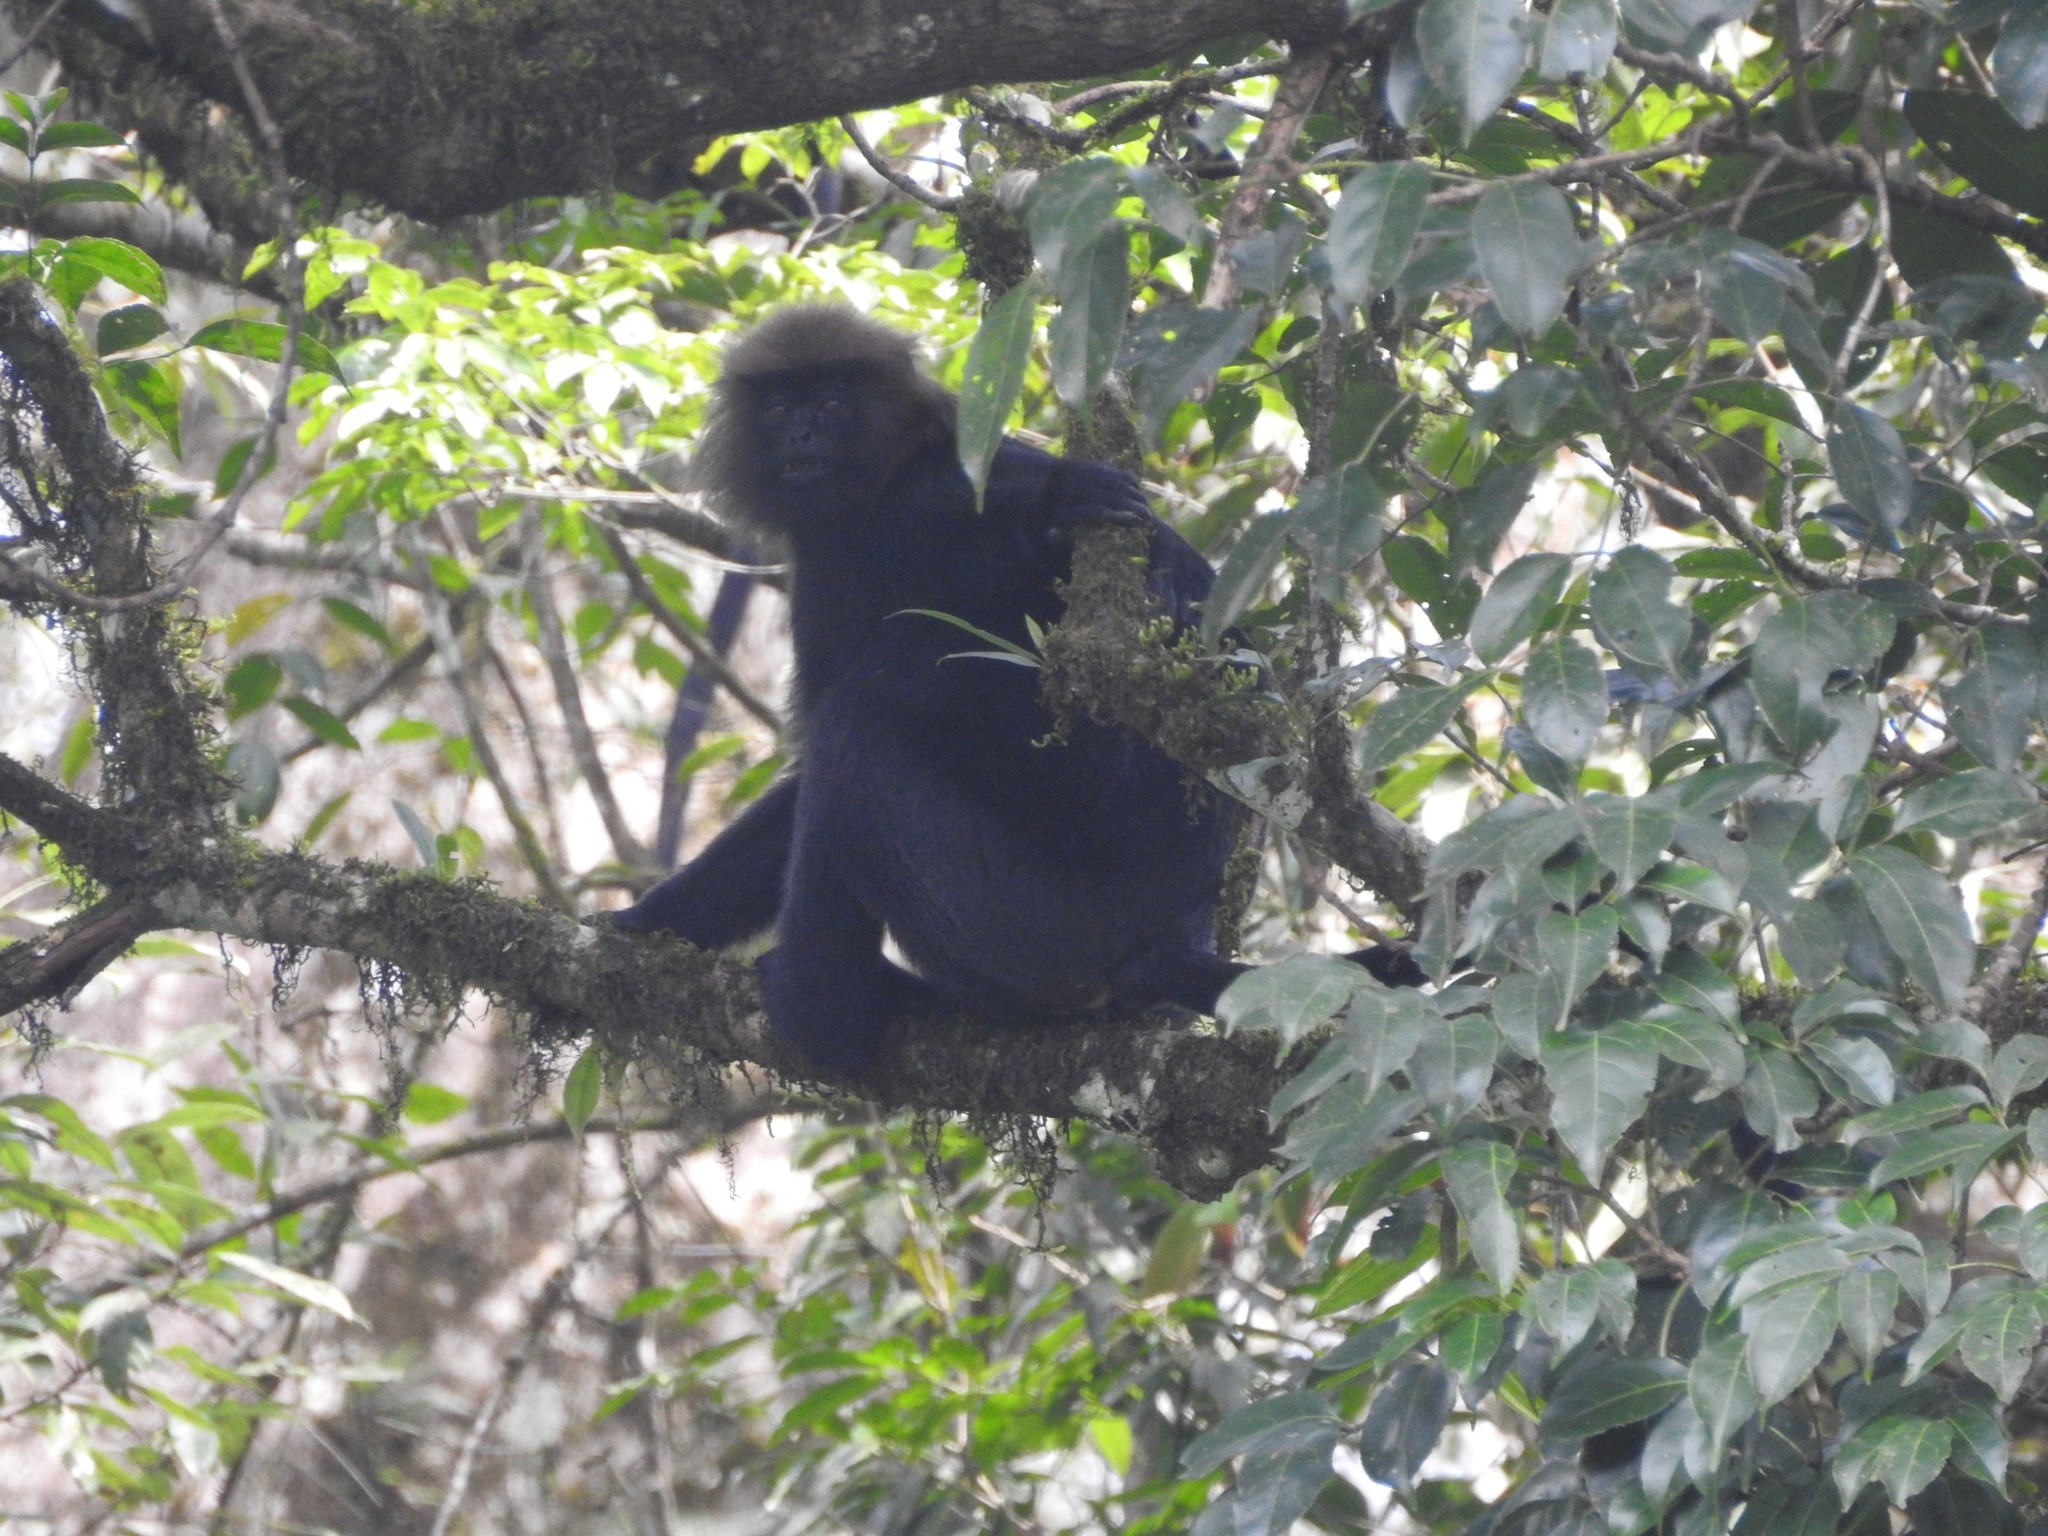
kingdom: Animalia
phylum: Chordata
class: Mammalia
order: Primates
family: Cercopithecidae
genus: Semnopithecus
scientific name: Semnopithecus johnii
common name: Nilgiri langur
